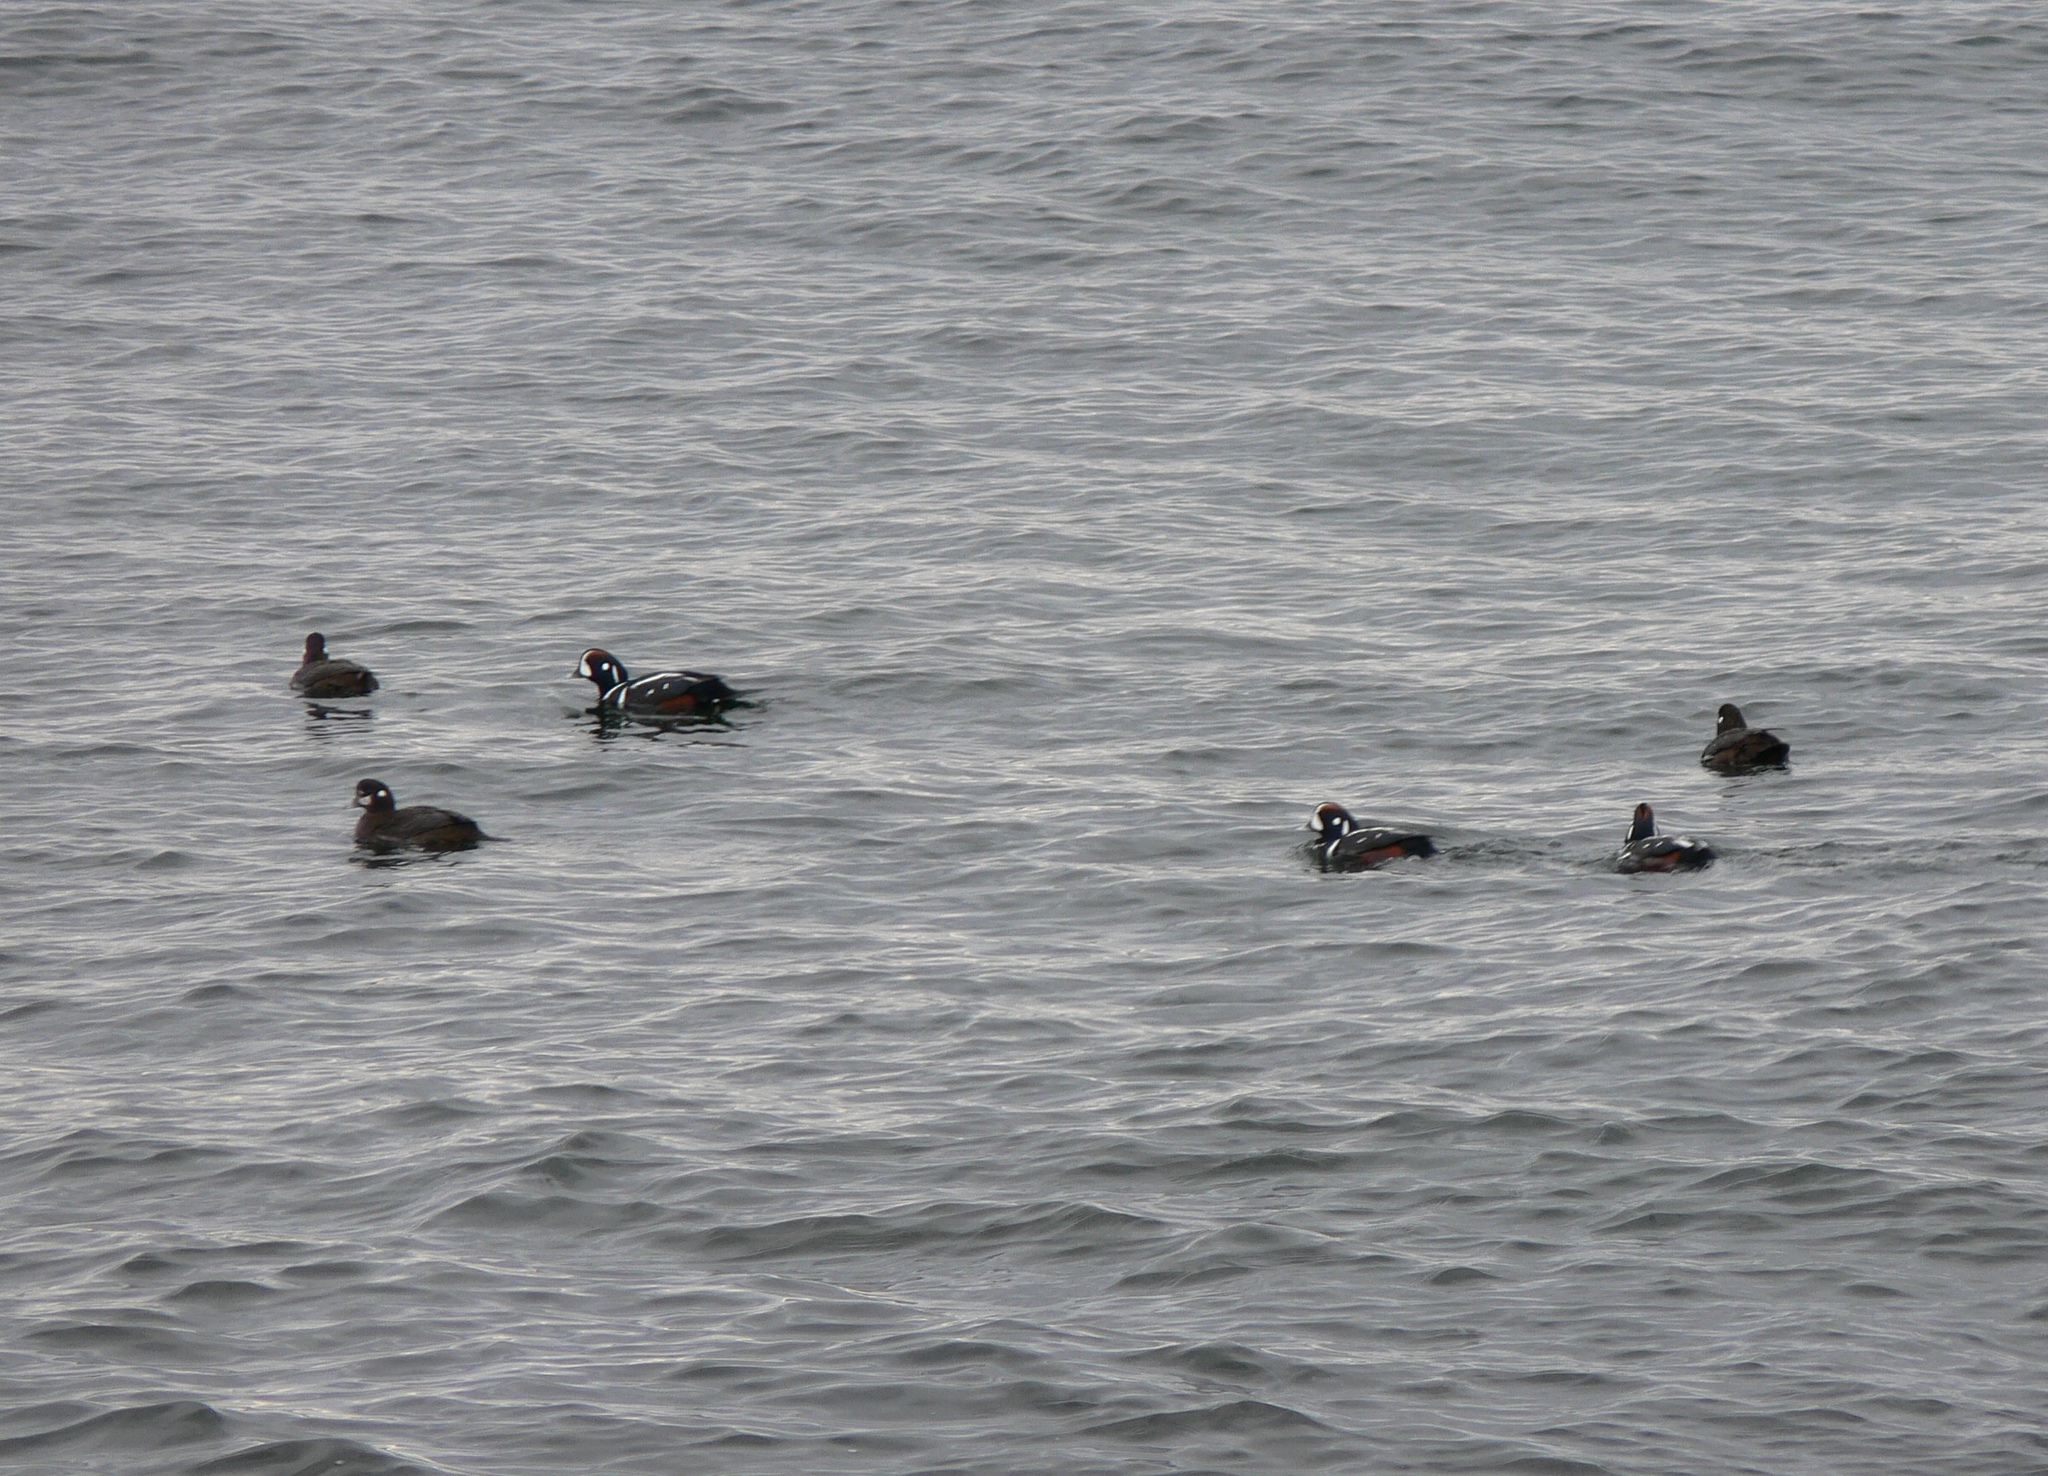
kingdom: Animalia
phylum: Chordata
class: Aves
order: Anseriformes
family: Anatidae
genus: Histrionicus
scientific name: Histrionicus histrionicus
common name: Harlequin duck
